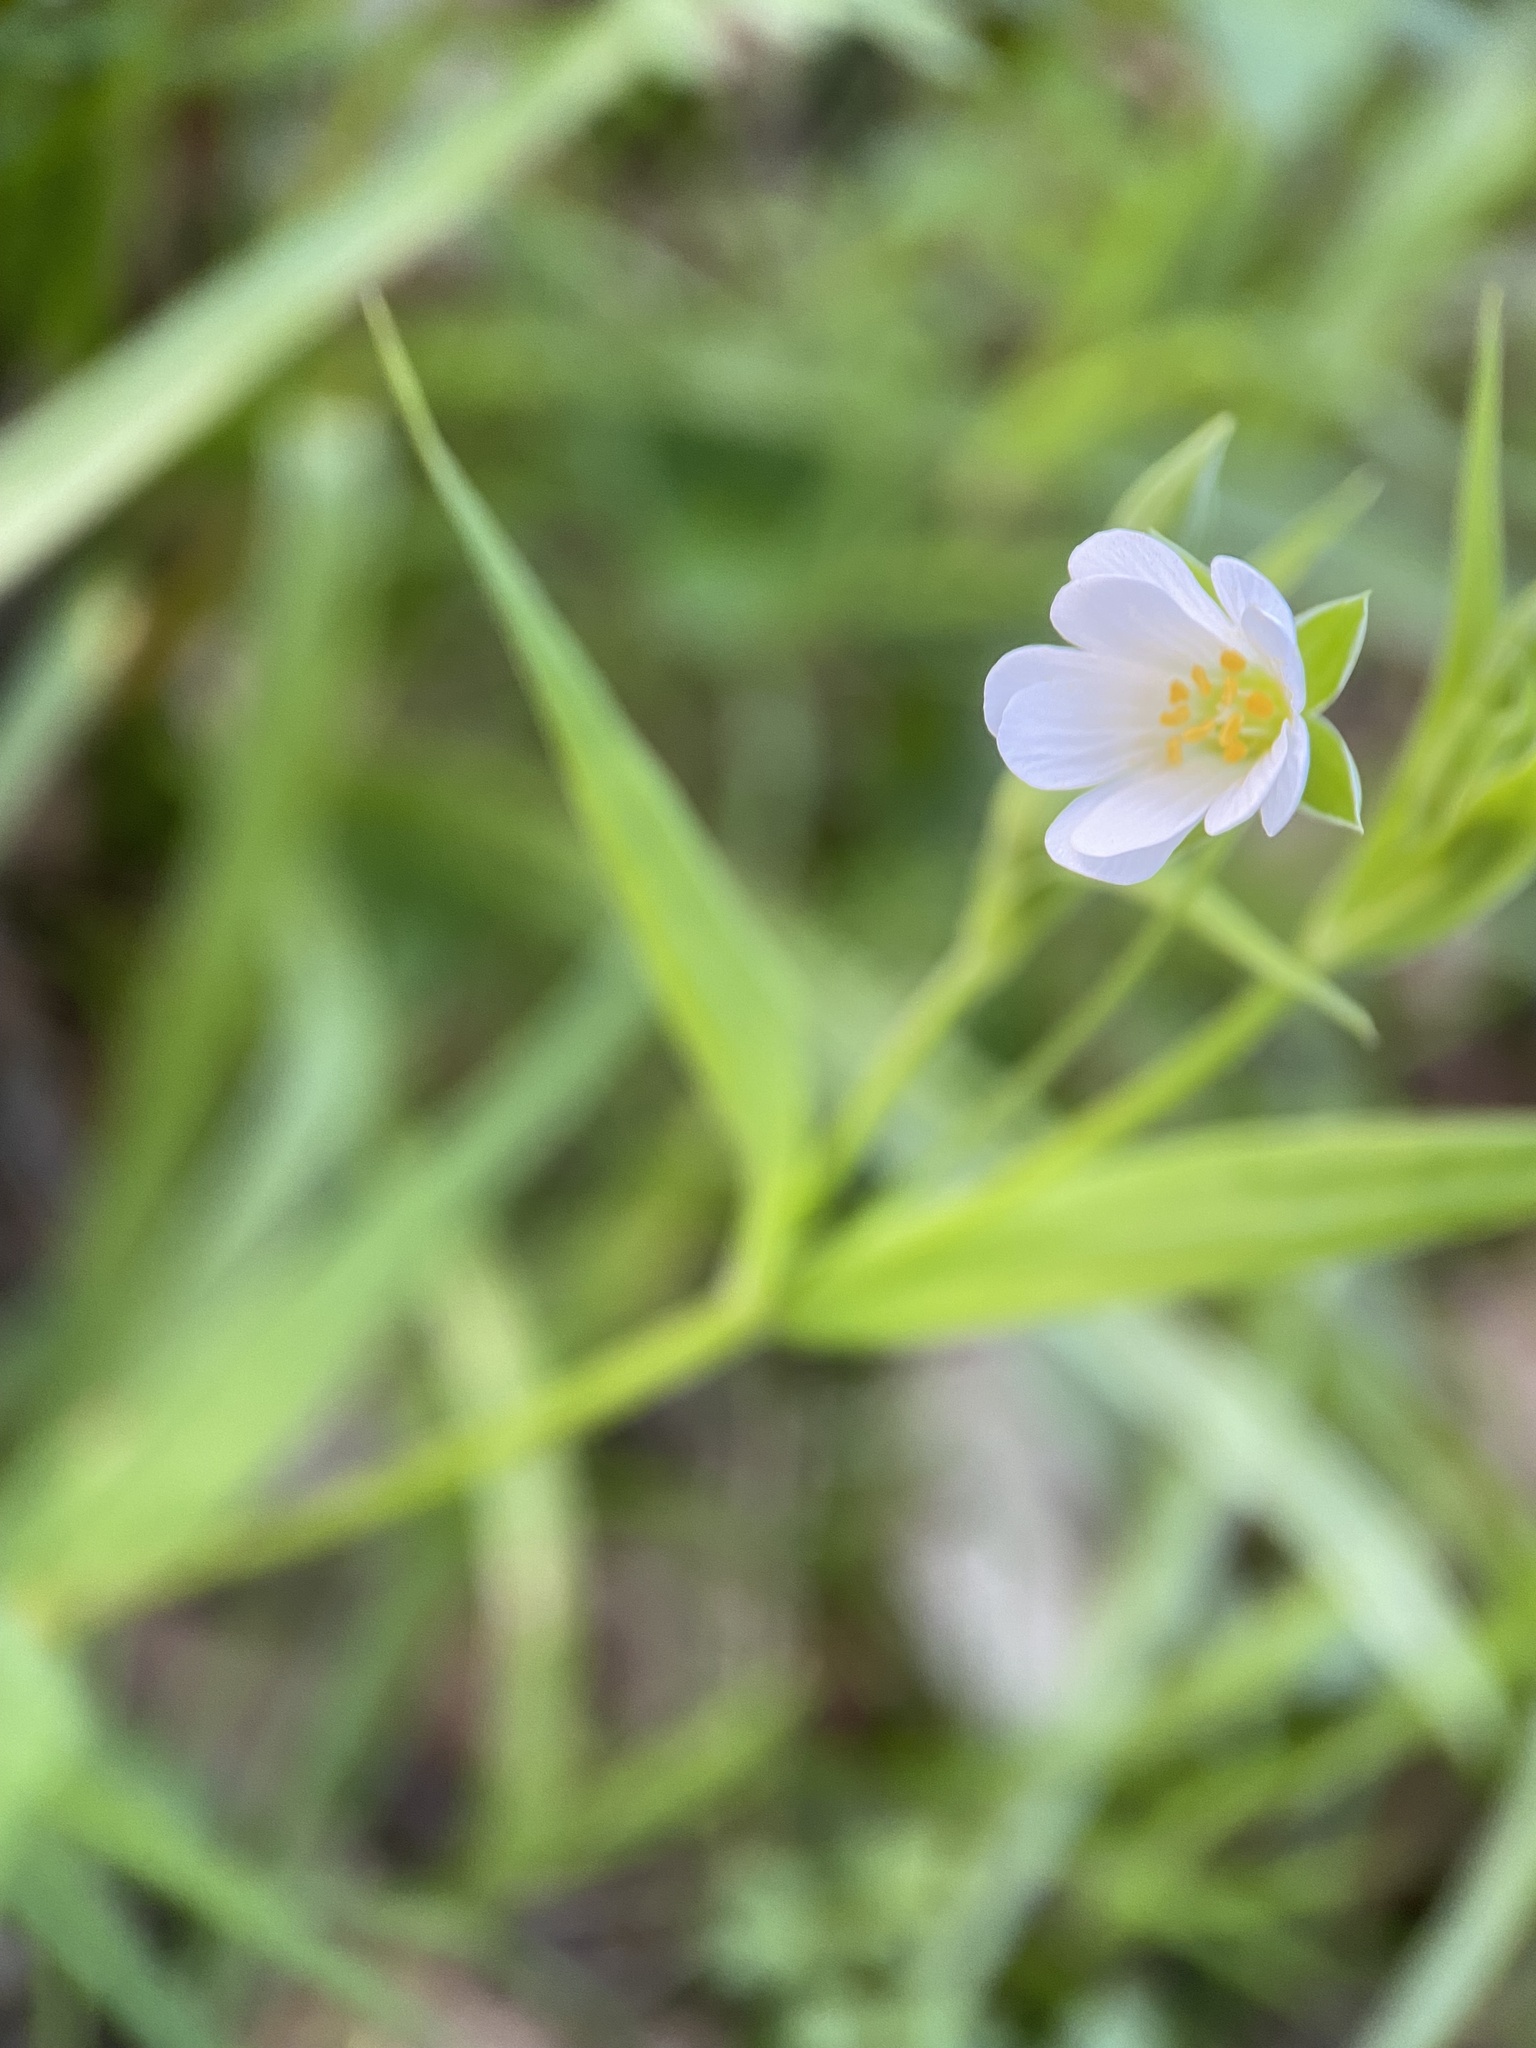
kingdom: Plantae
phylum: Tracheophyta
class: Magnoliopsida
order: Caryophyllales
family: Caryophyllaceae
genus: Rabelera
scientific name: Rabelera holostea
